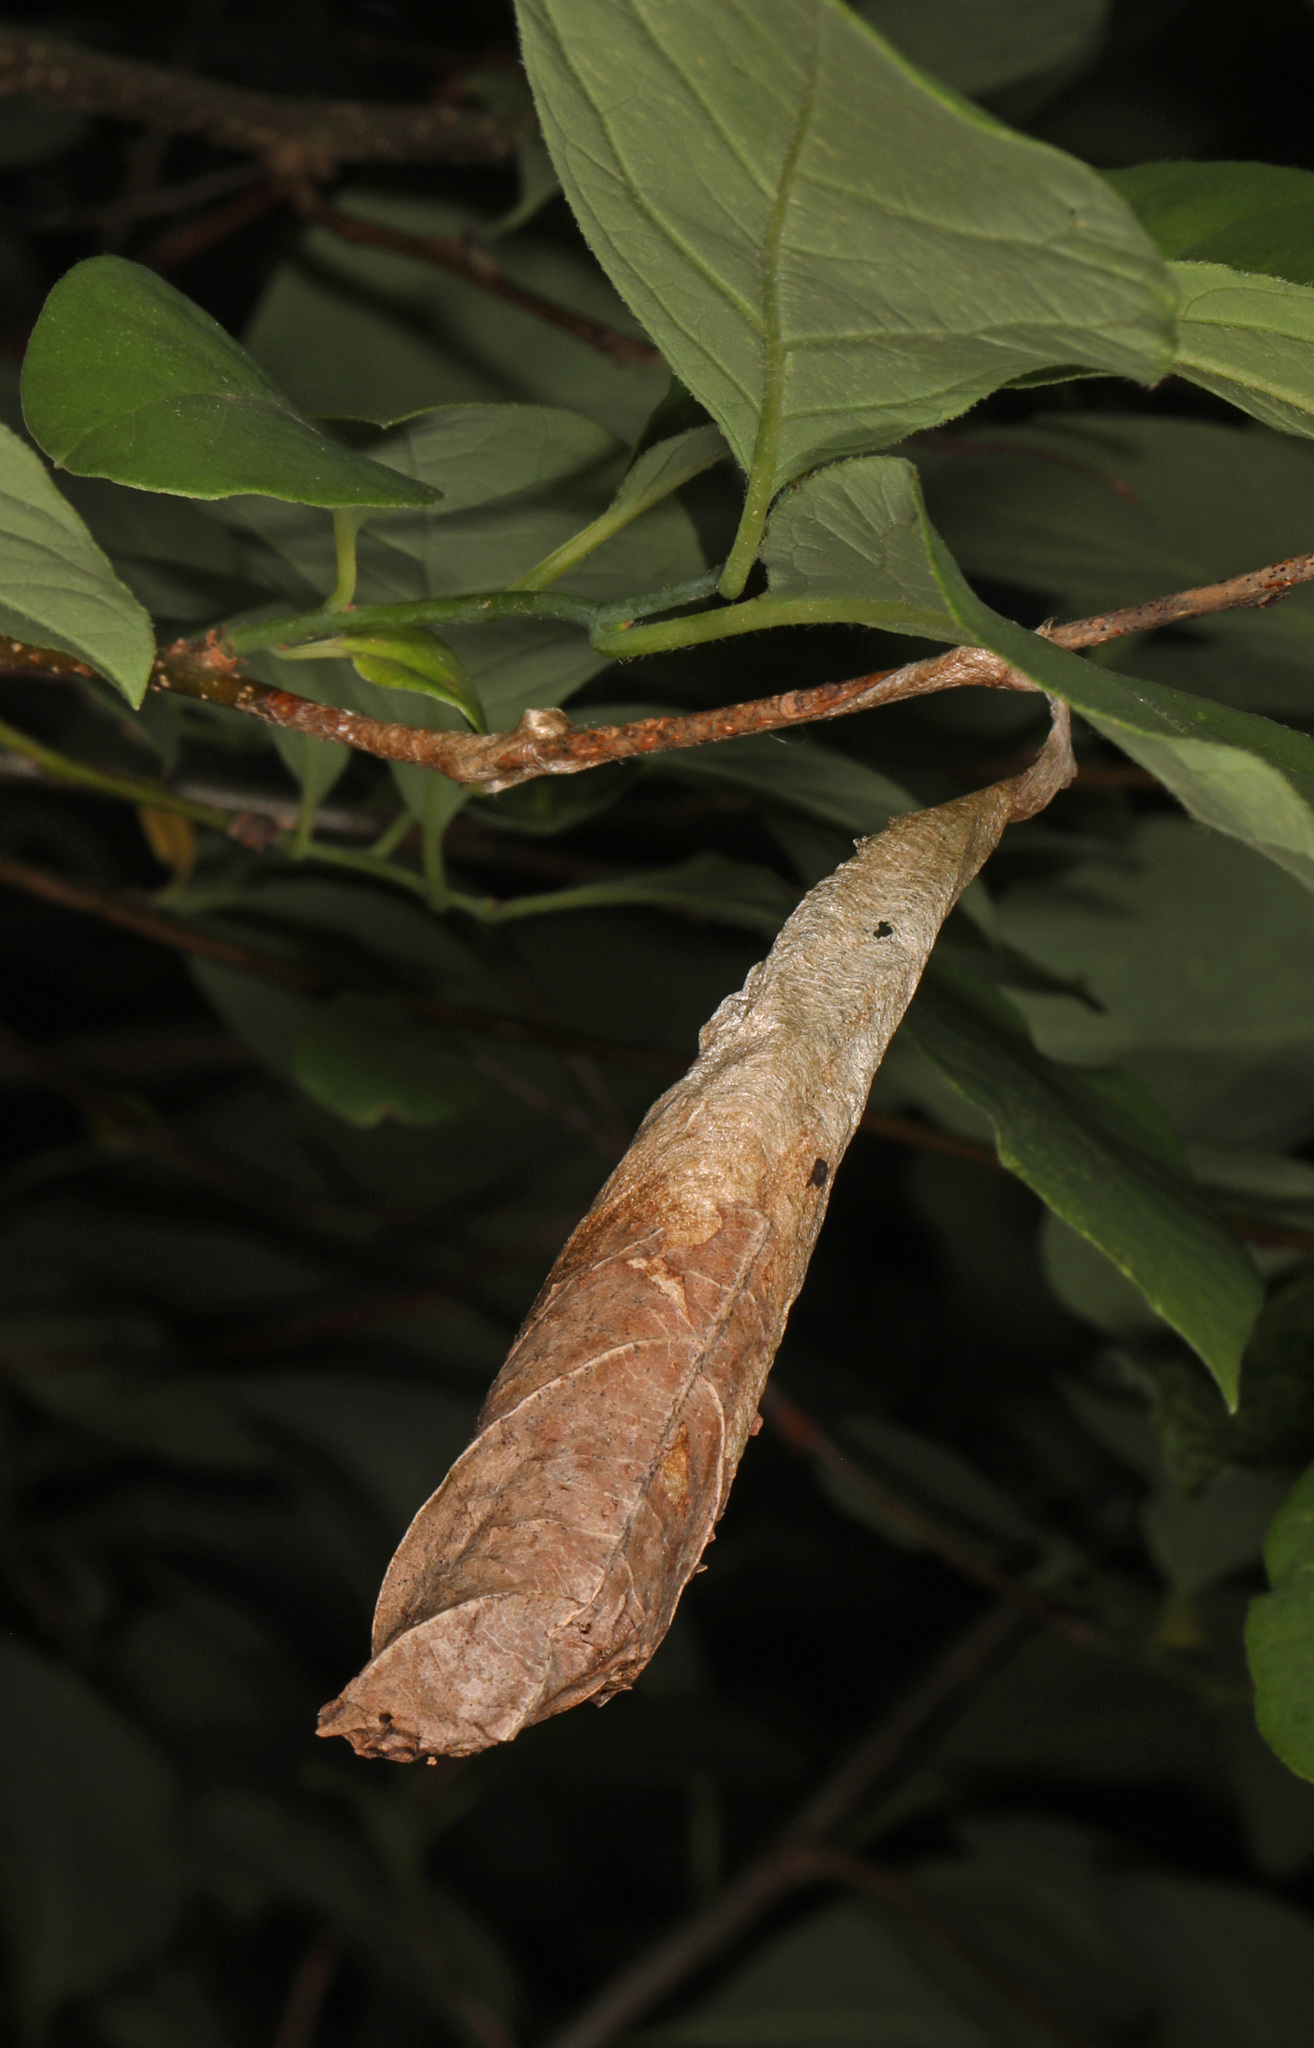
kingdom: Animalia
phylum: Arthropoda
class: Insecta
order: Lepidoptera
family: Saturniidae
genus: Callosamia
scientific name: Callosamia promethea
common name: Promethea silkmoth
